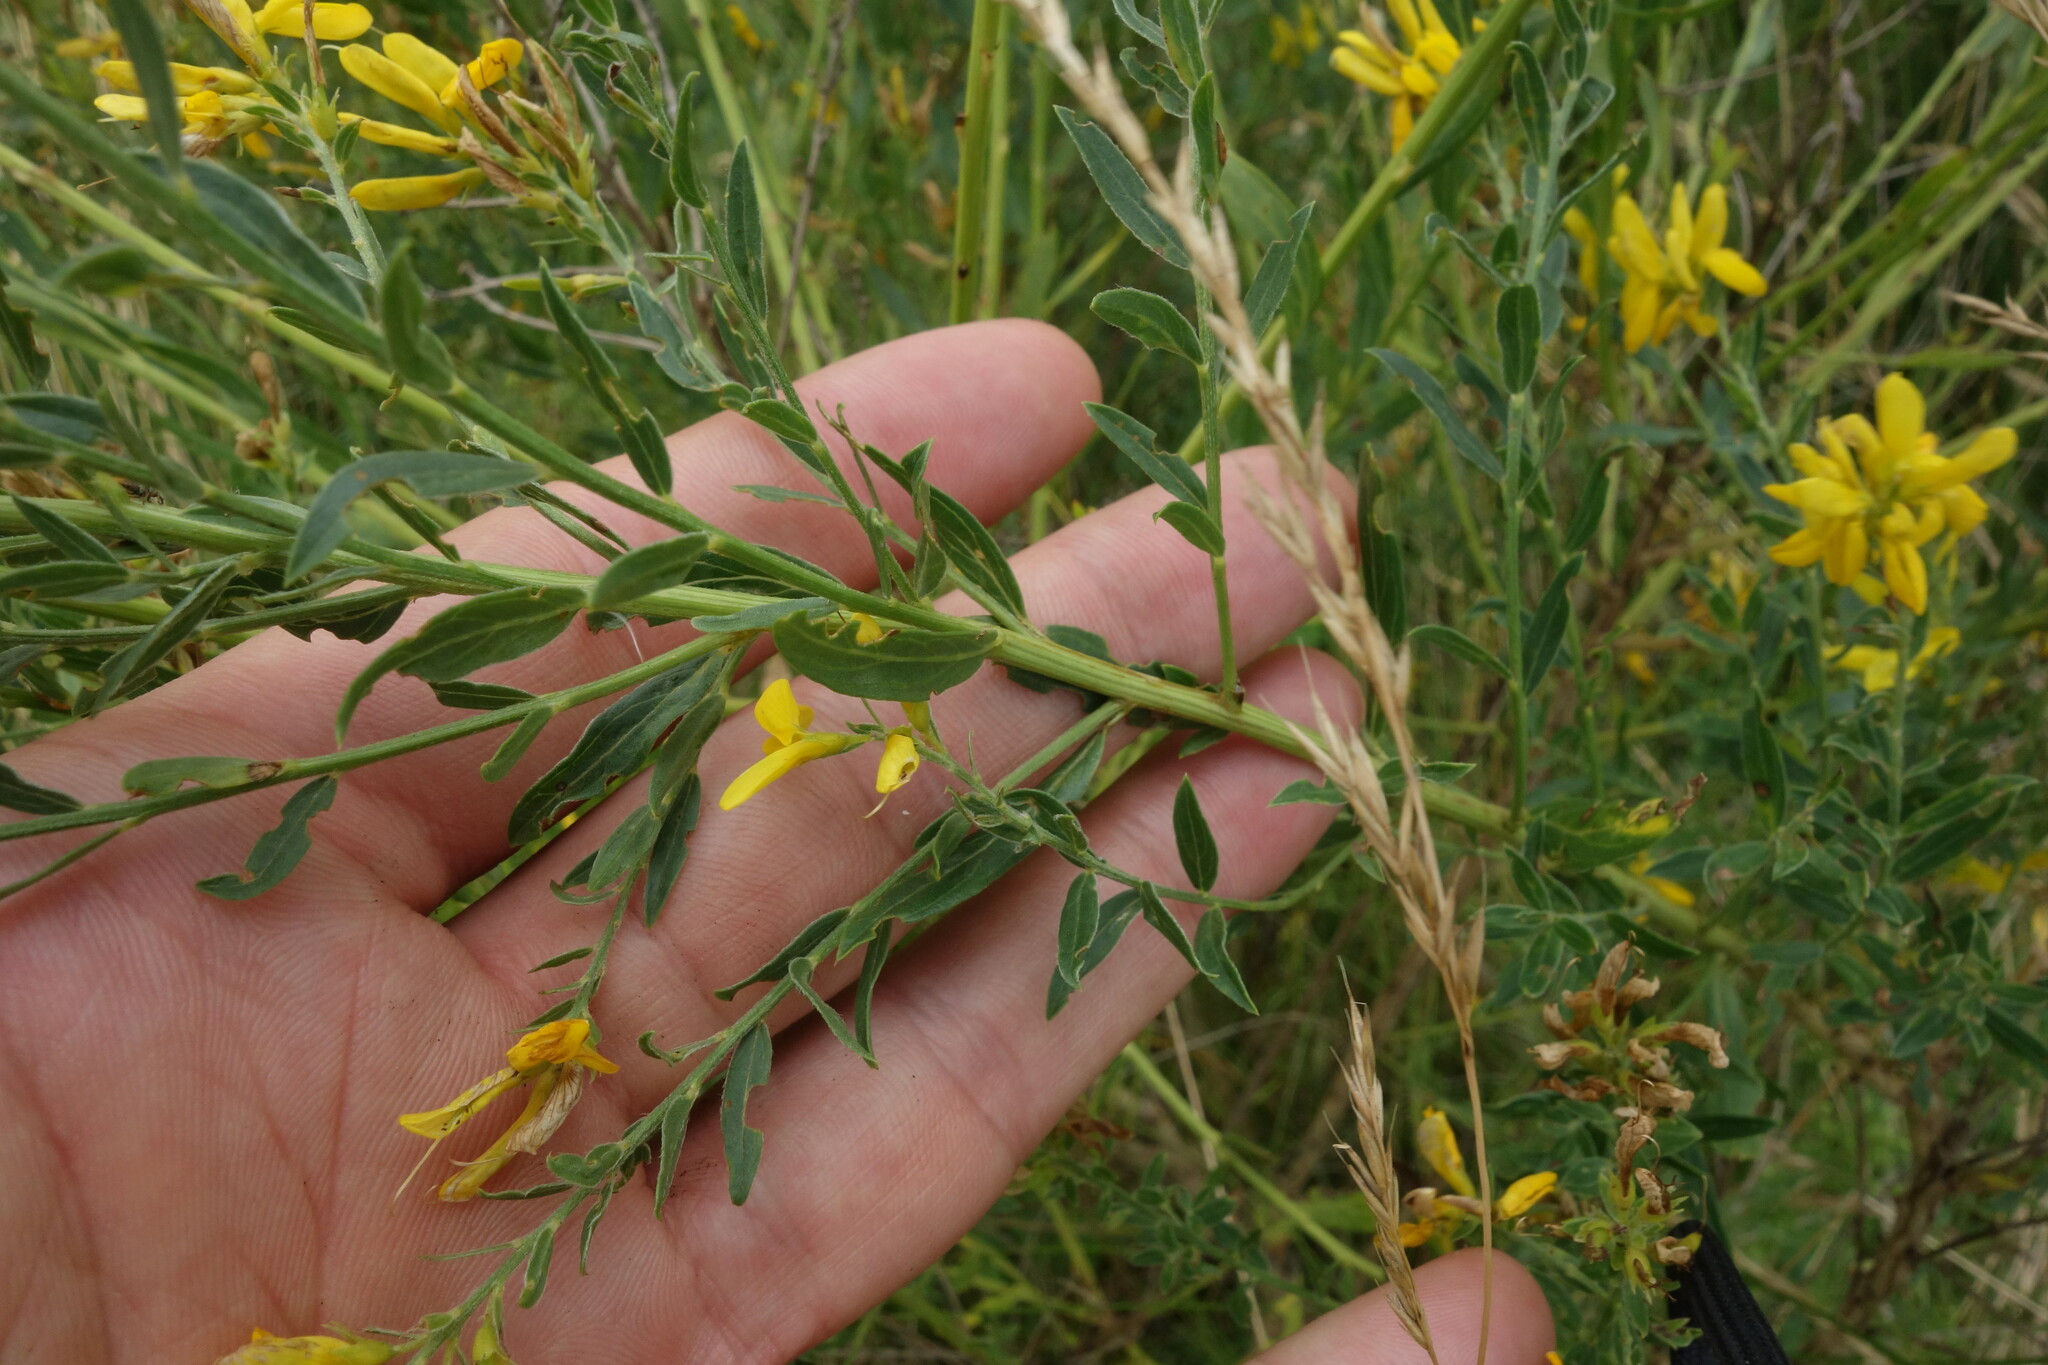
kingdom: Plantae
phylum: Tracheophyta
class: Magnoliopsida
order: Fabales
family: Fabaceae
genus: Genista
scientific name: Genista tinctoria
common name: Dyer's greenweed
